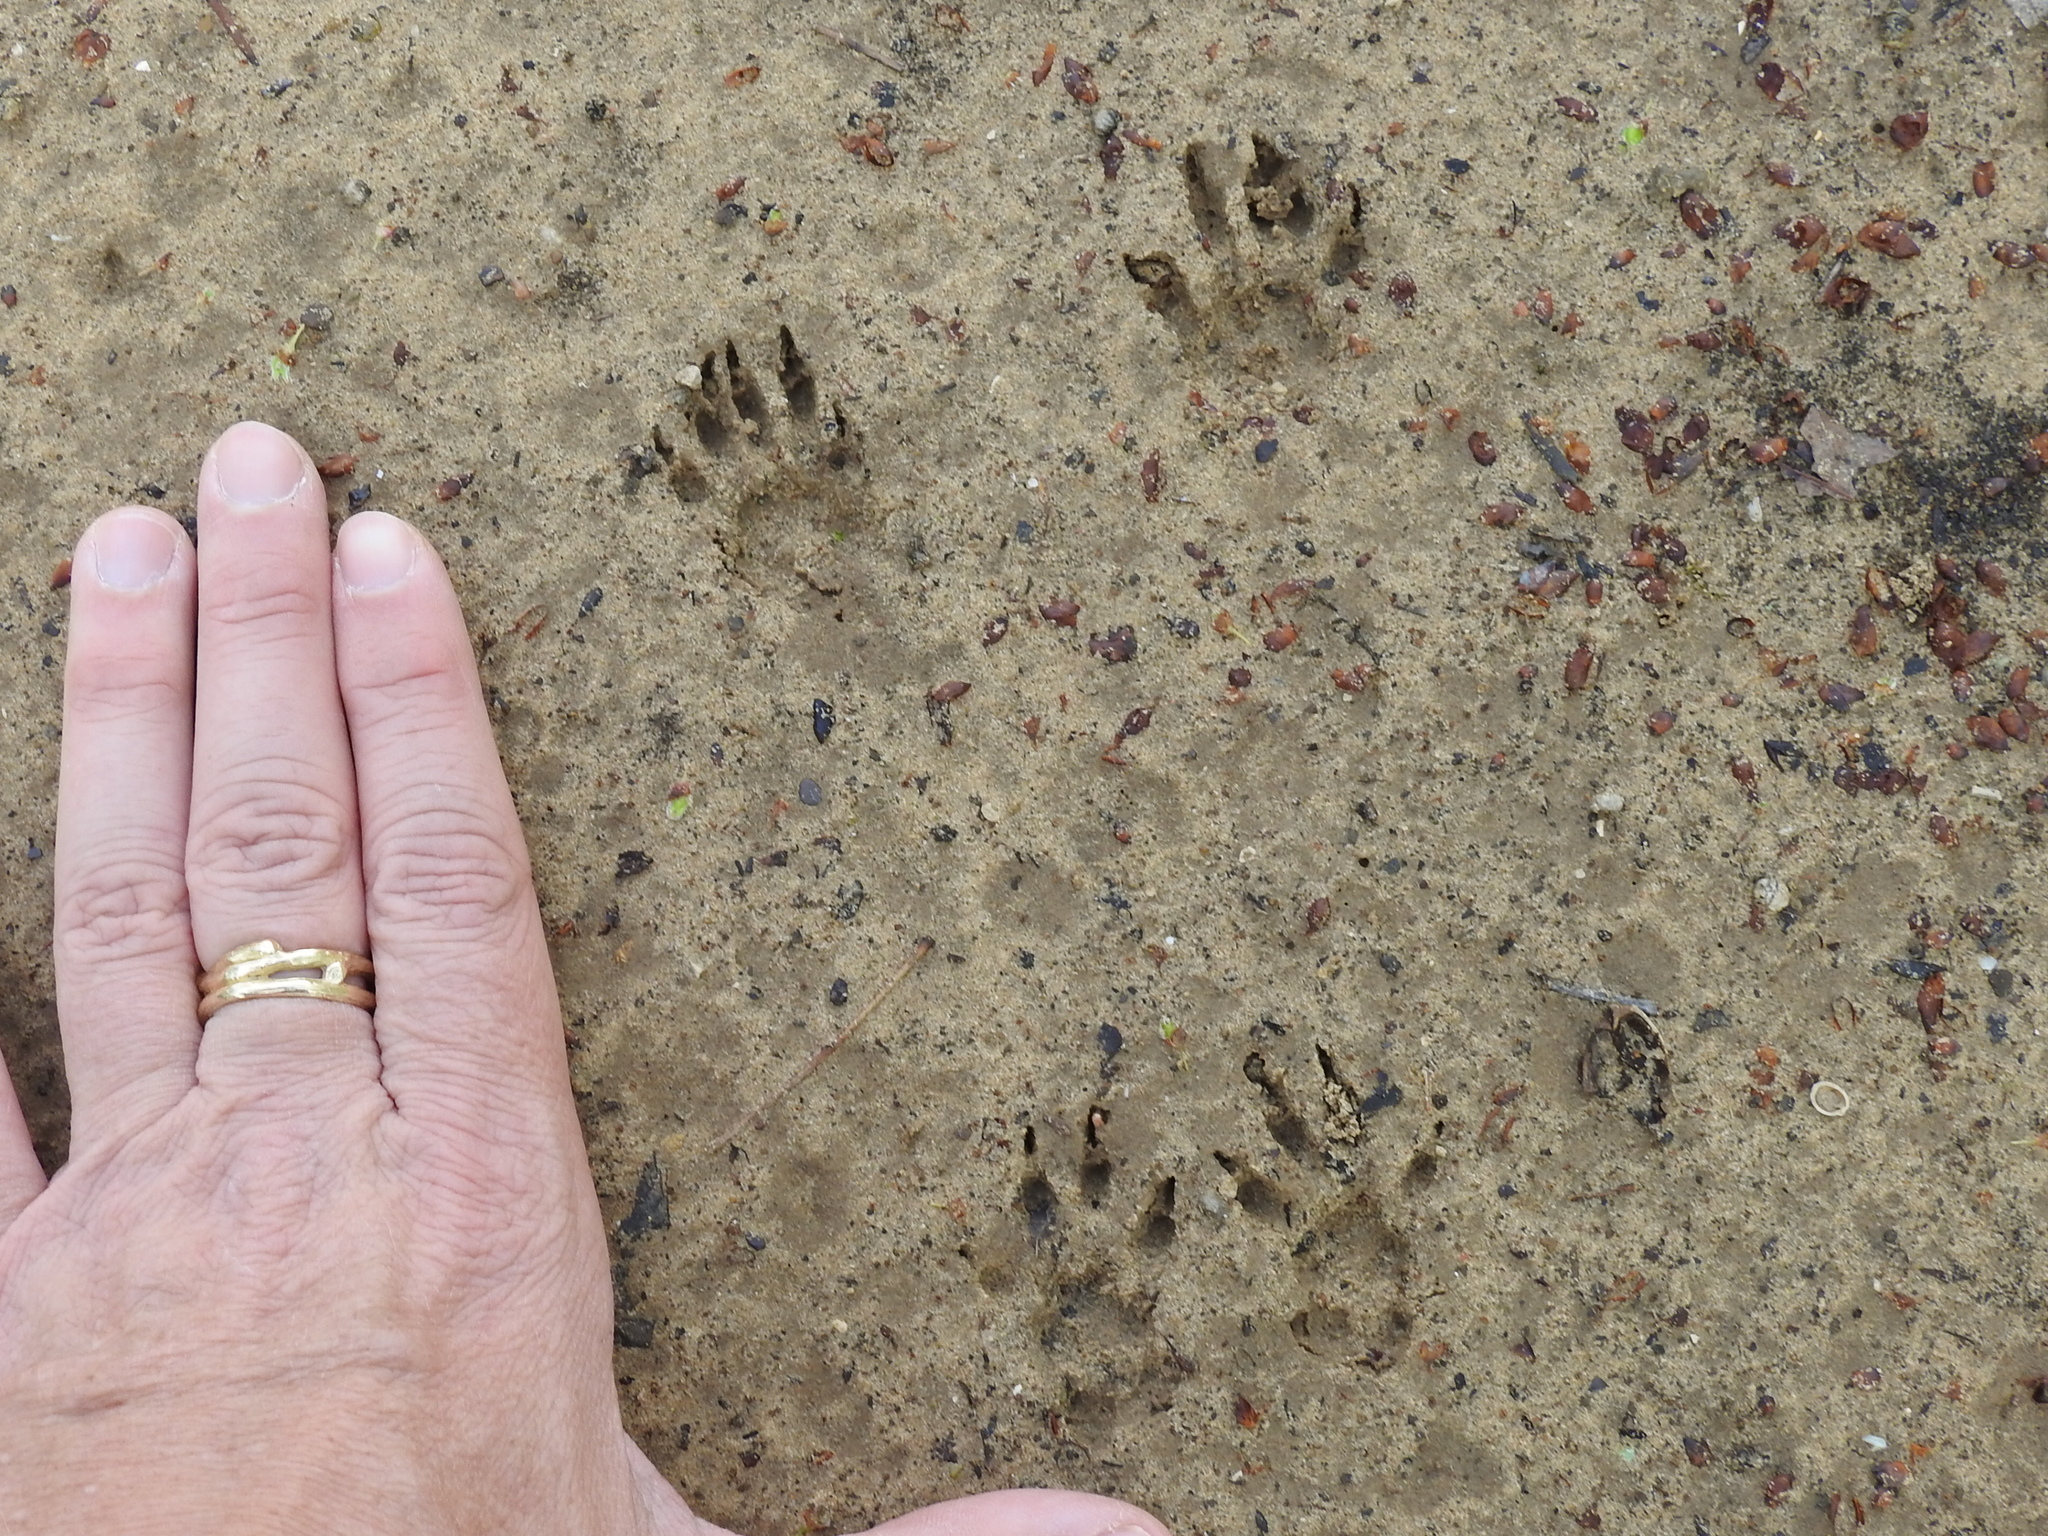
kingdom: Animalia
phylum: Chordata
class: Mammalia
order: Rodentia
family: Sciuridae
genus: Sciurus
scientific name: Sciurus niger
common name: Fox squirrel
